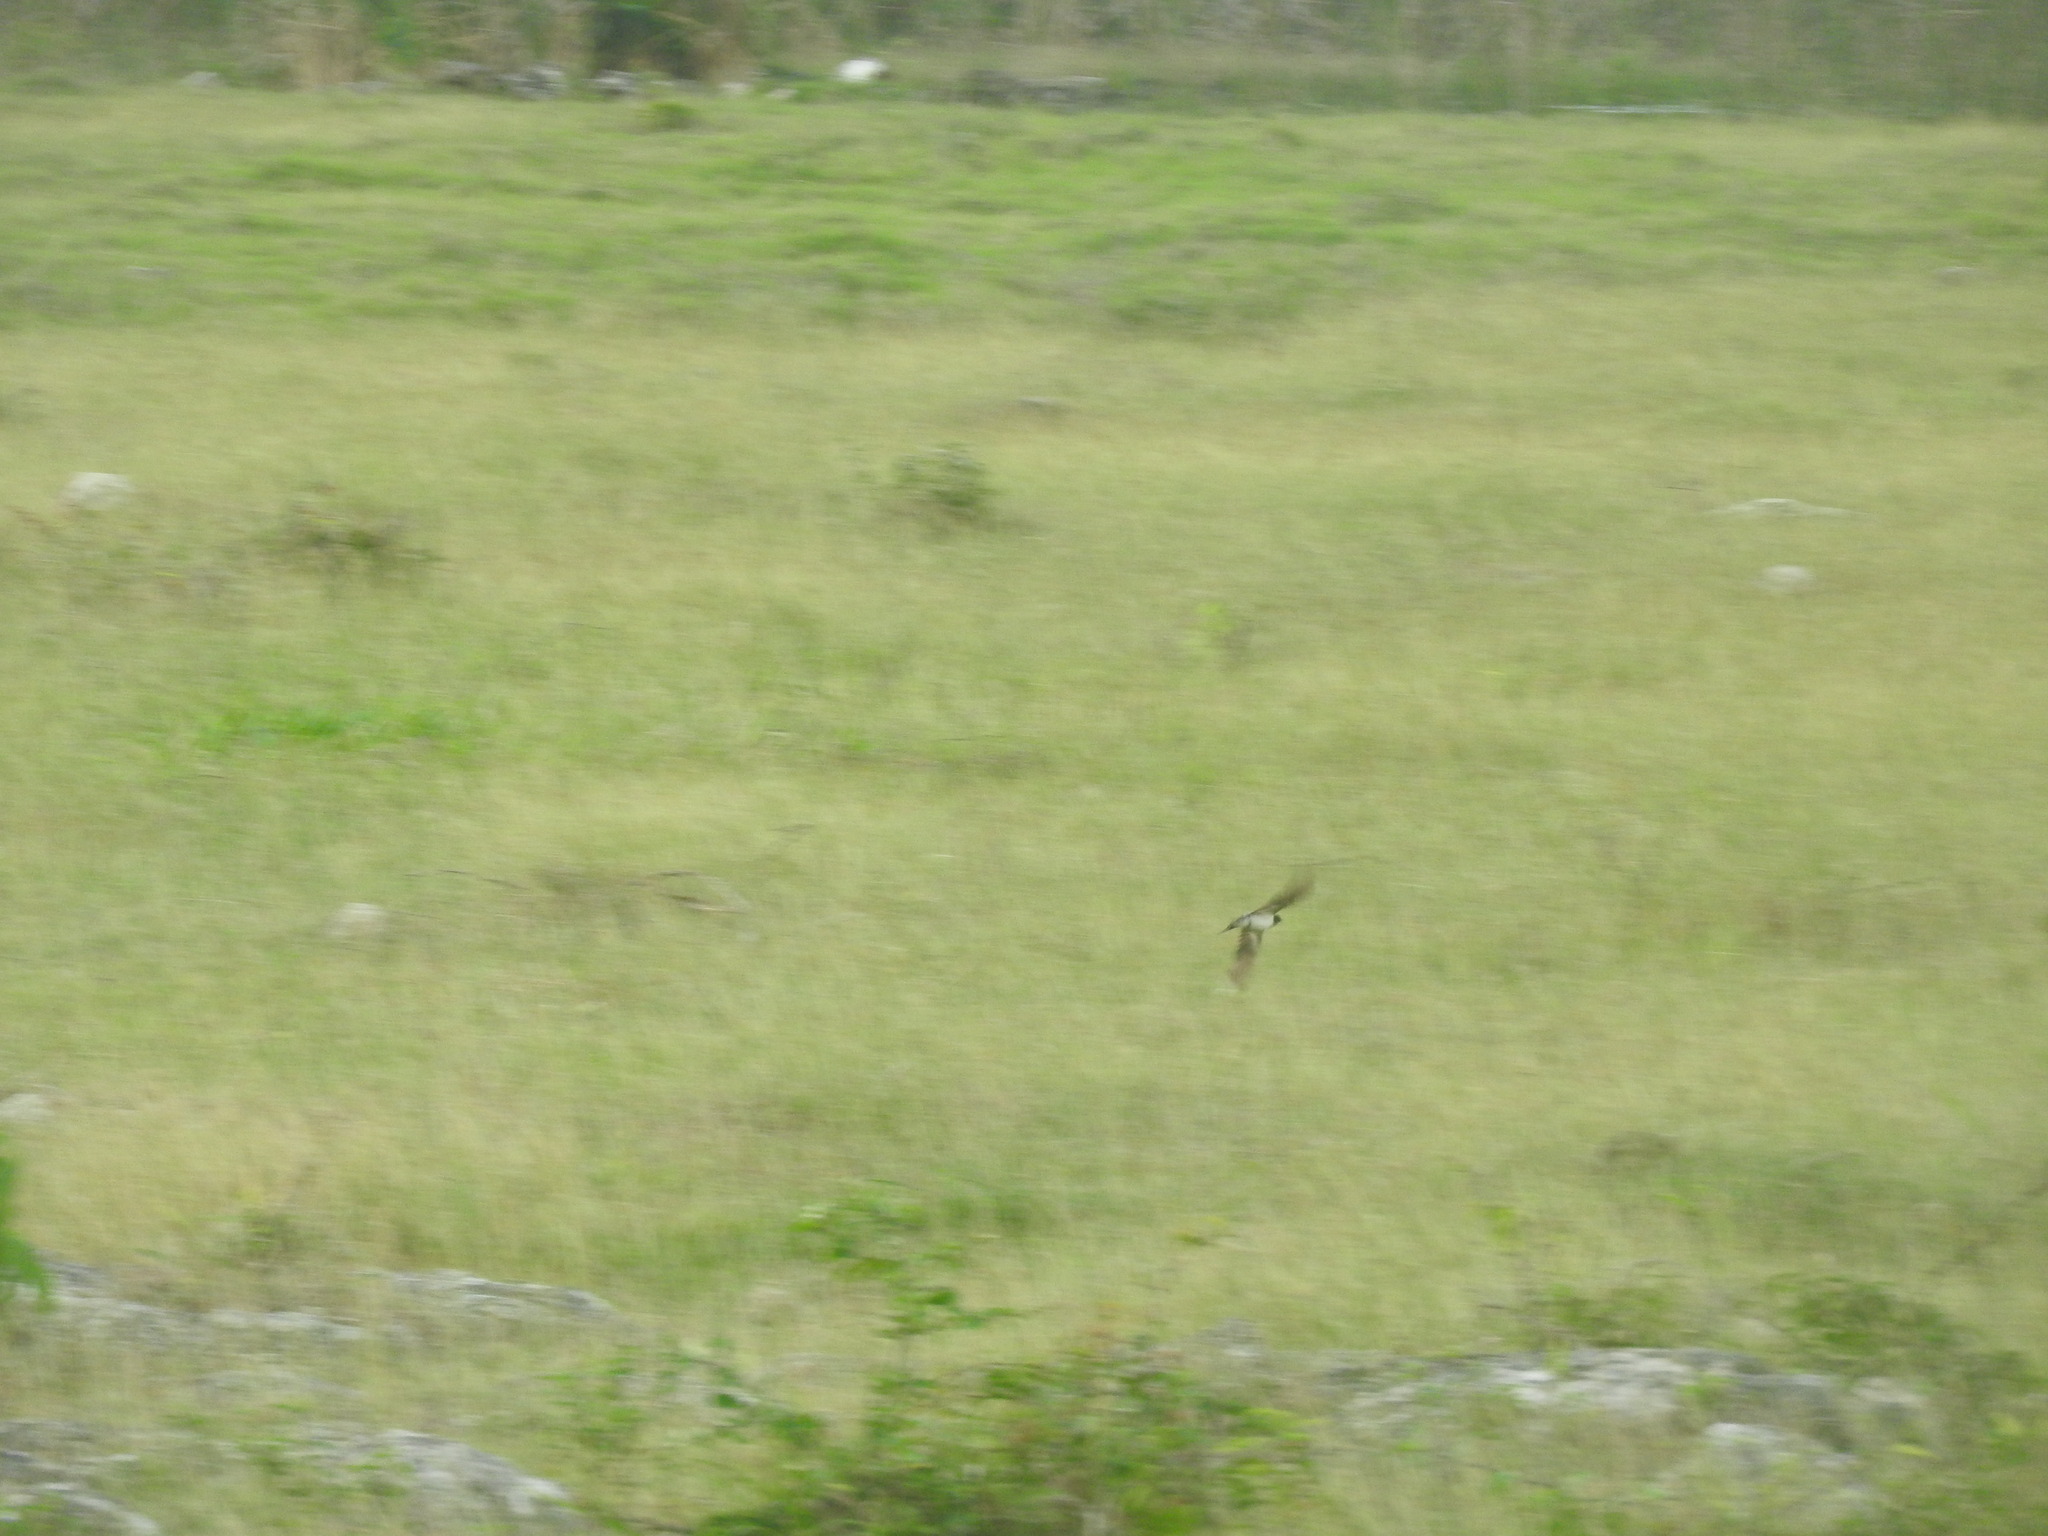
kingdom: Animalia
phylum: Chordata
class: Aves
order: Passeriformes
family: Hirundinidae
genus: Hirundo
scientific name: Hirundo rustica
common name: Barn swallow
